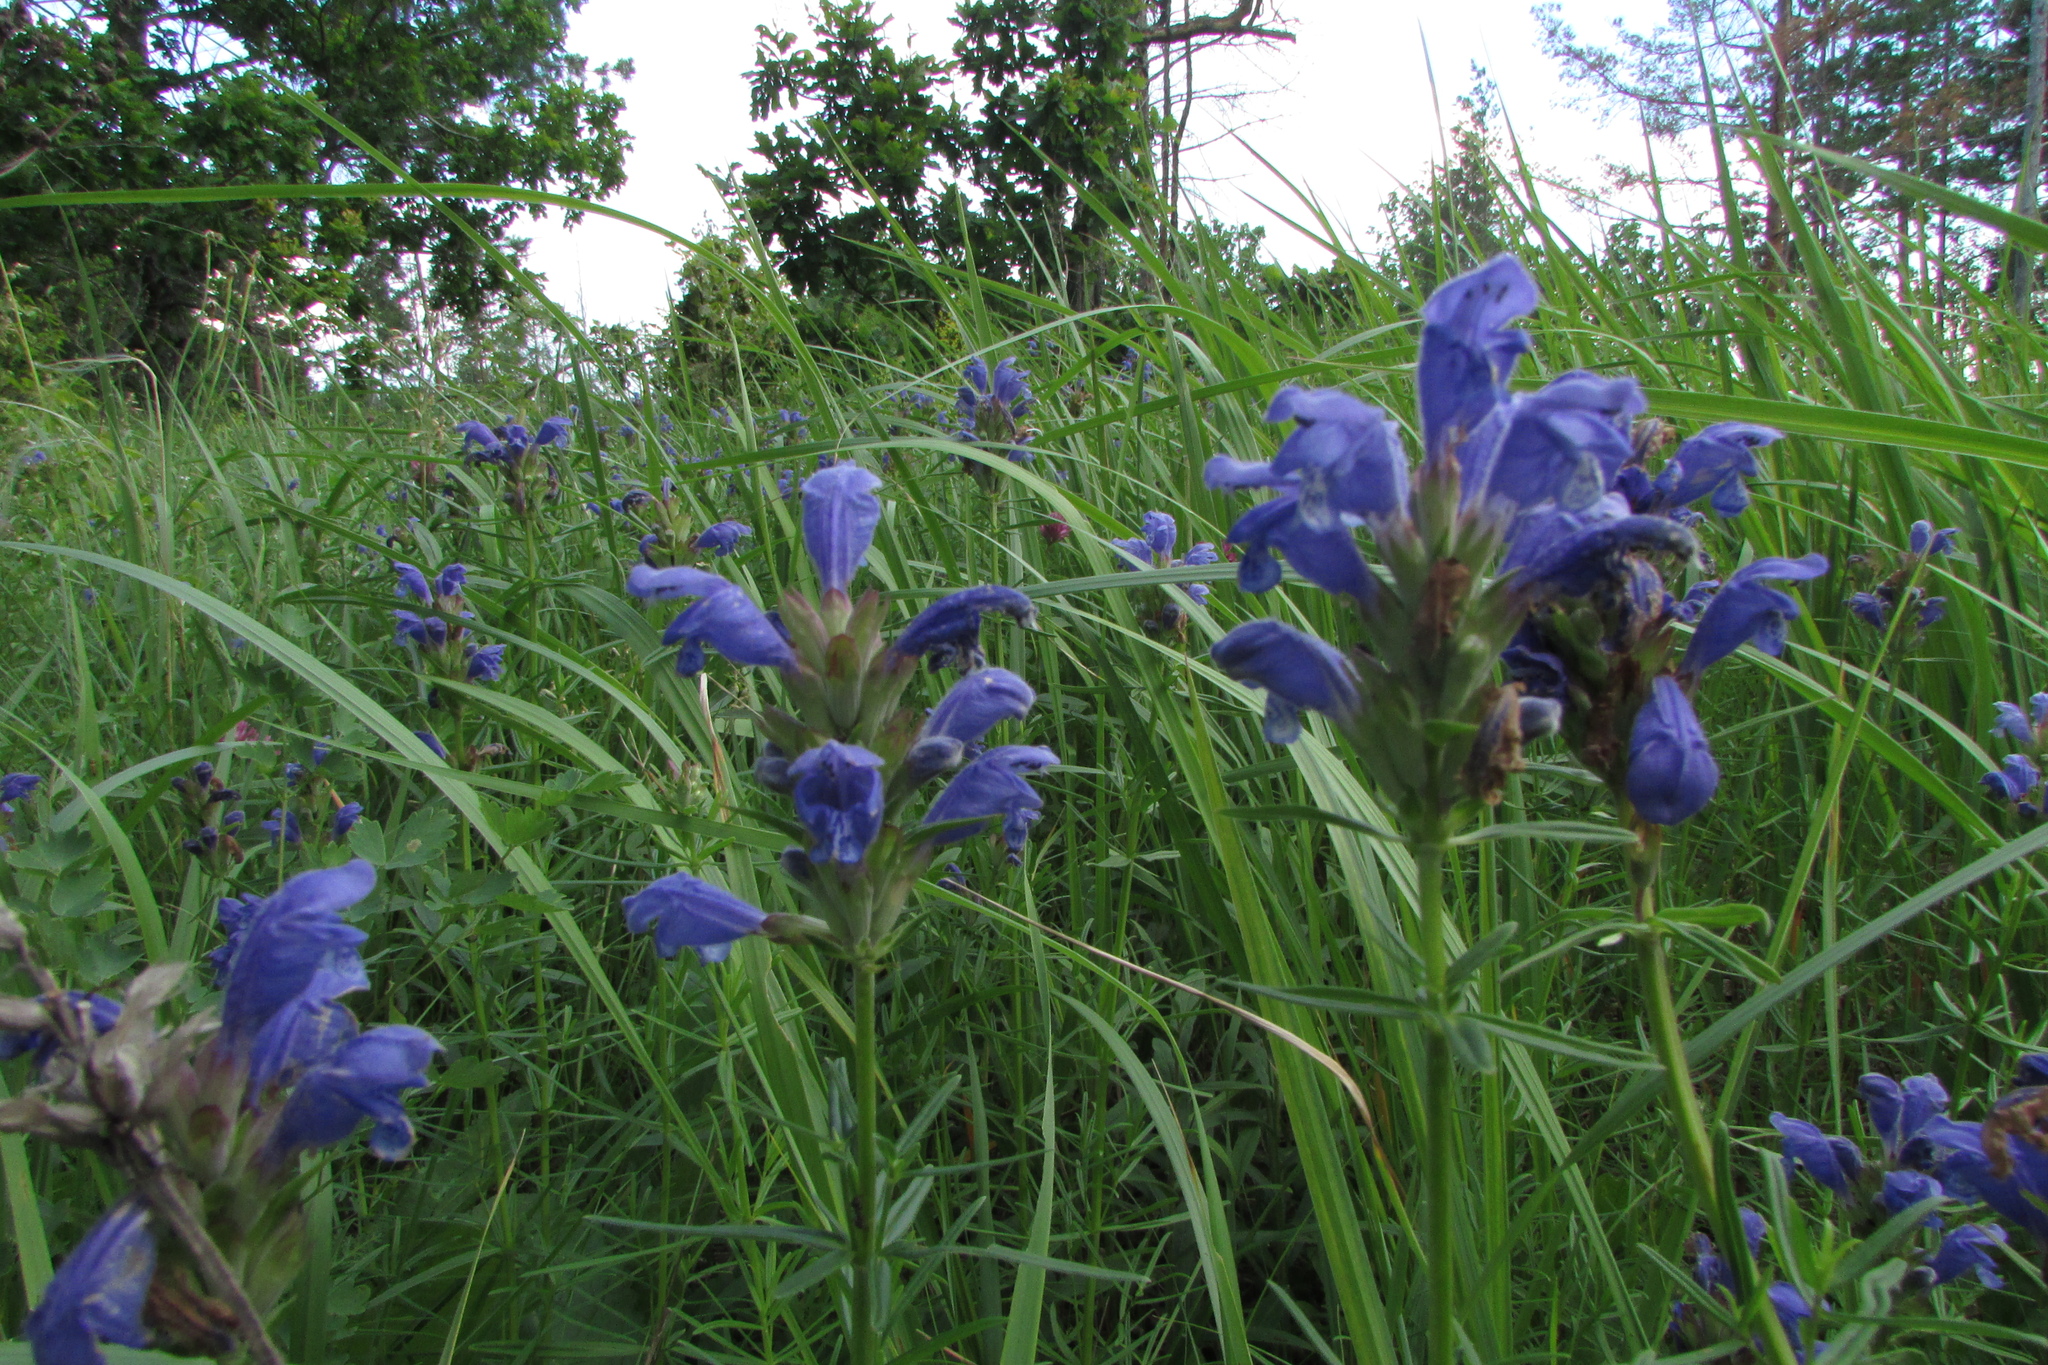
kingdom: Plantae
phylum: Tracheophyta
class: Magnoliopsida
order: Lamiales
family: Lamiaceae
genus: Dracocephalum
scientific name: Dracocephalum ruyschiana
